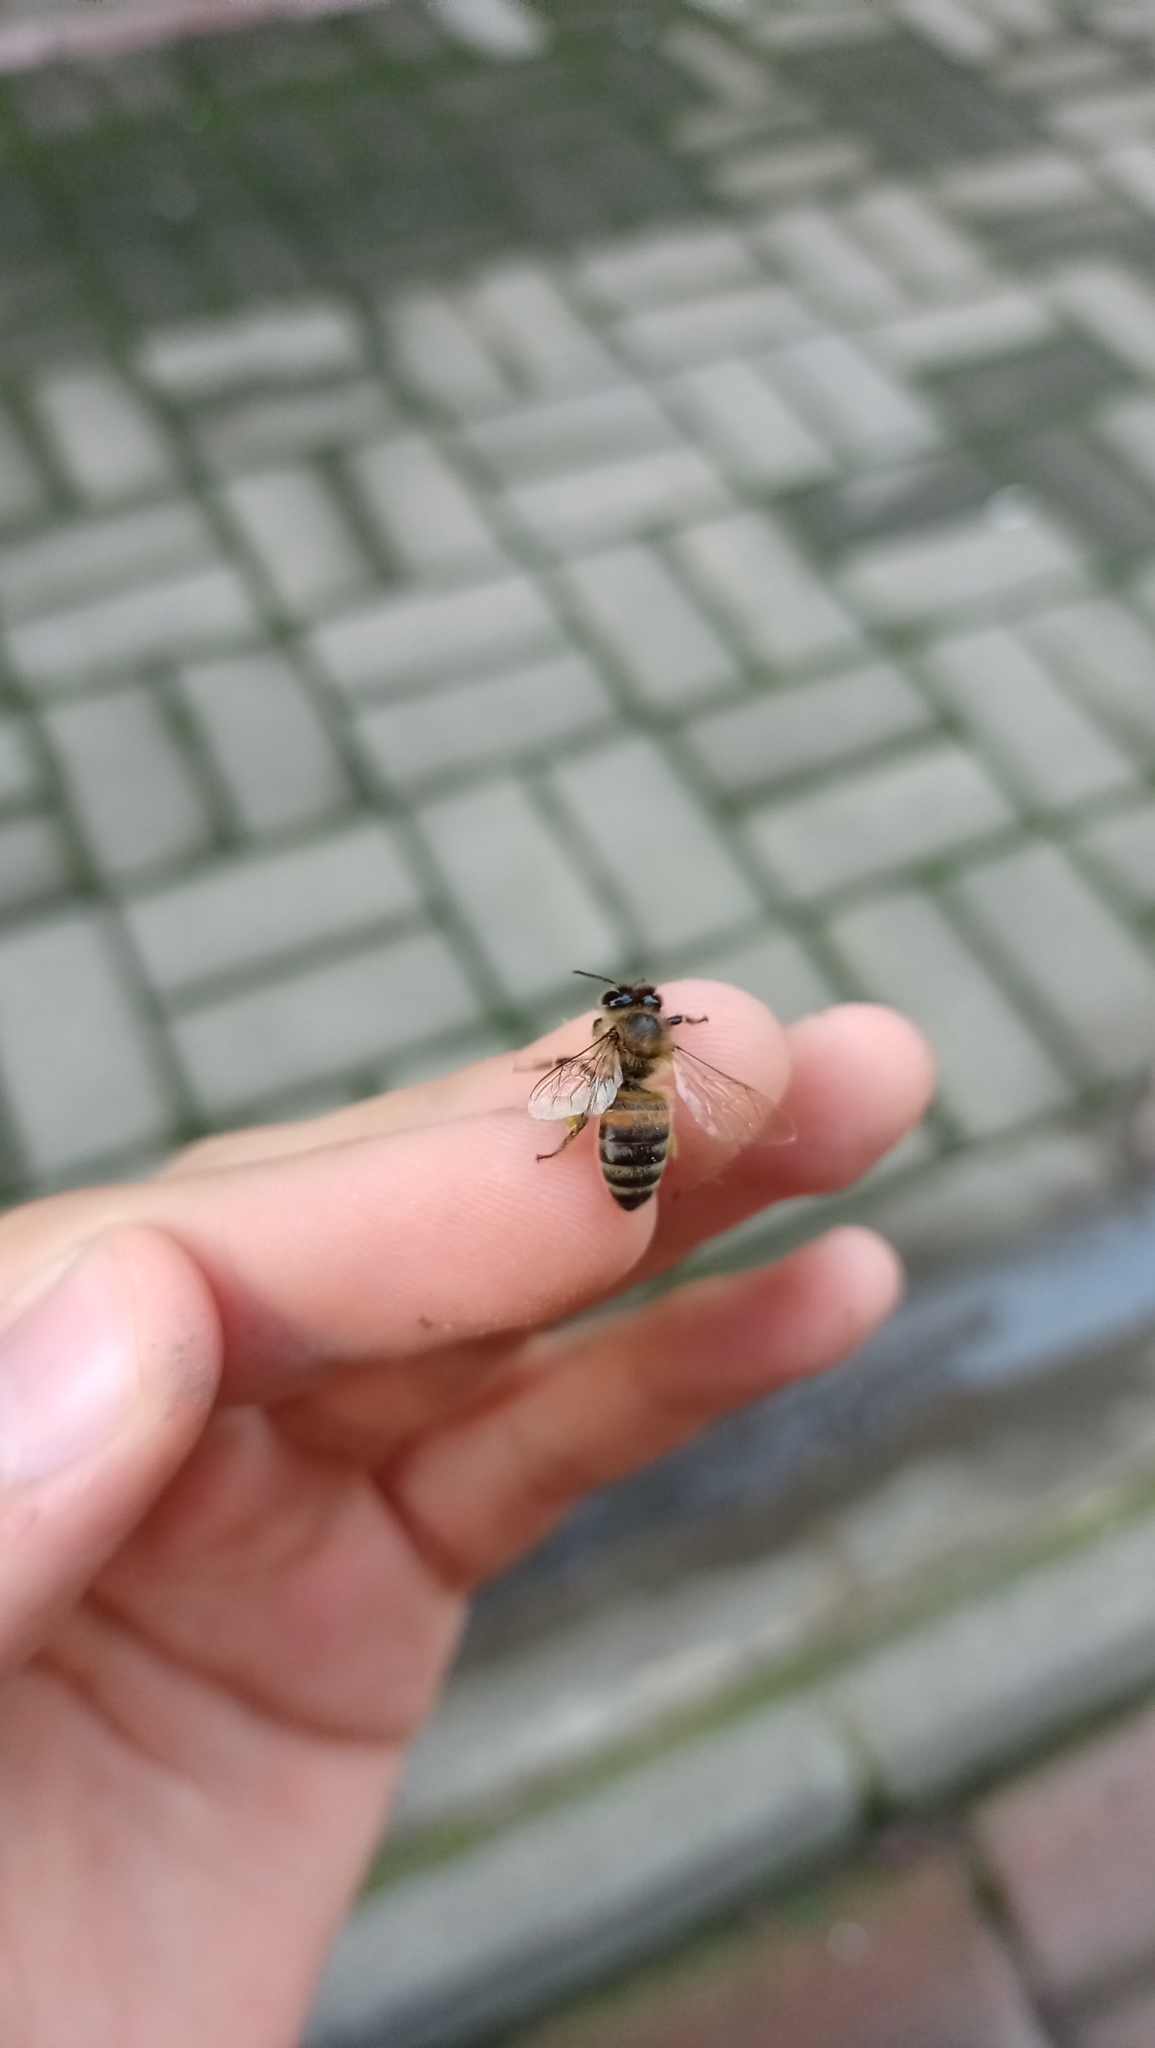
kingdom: Animalia
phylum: Arthropoda
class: Insecta
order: Hymenoptera
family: Apidae
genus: Apis
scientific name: Apis mellifera
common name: Honey bee
